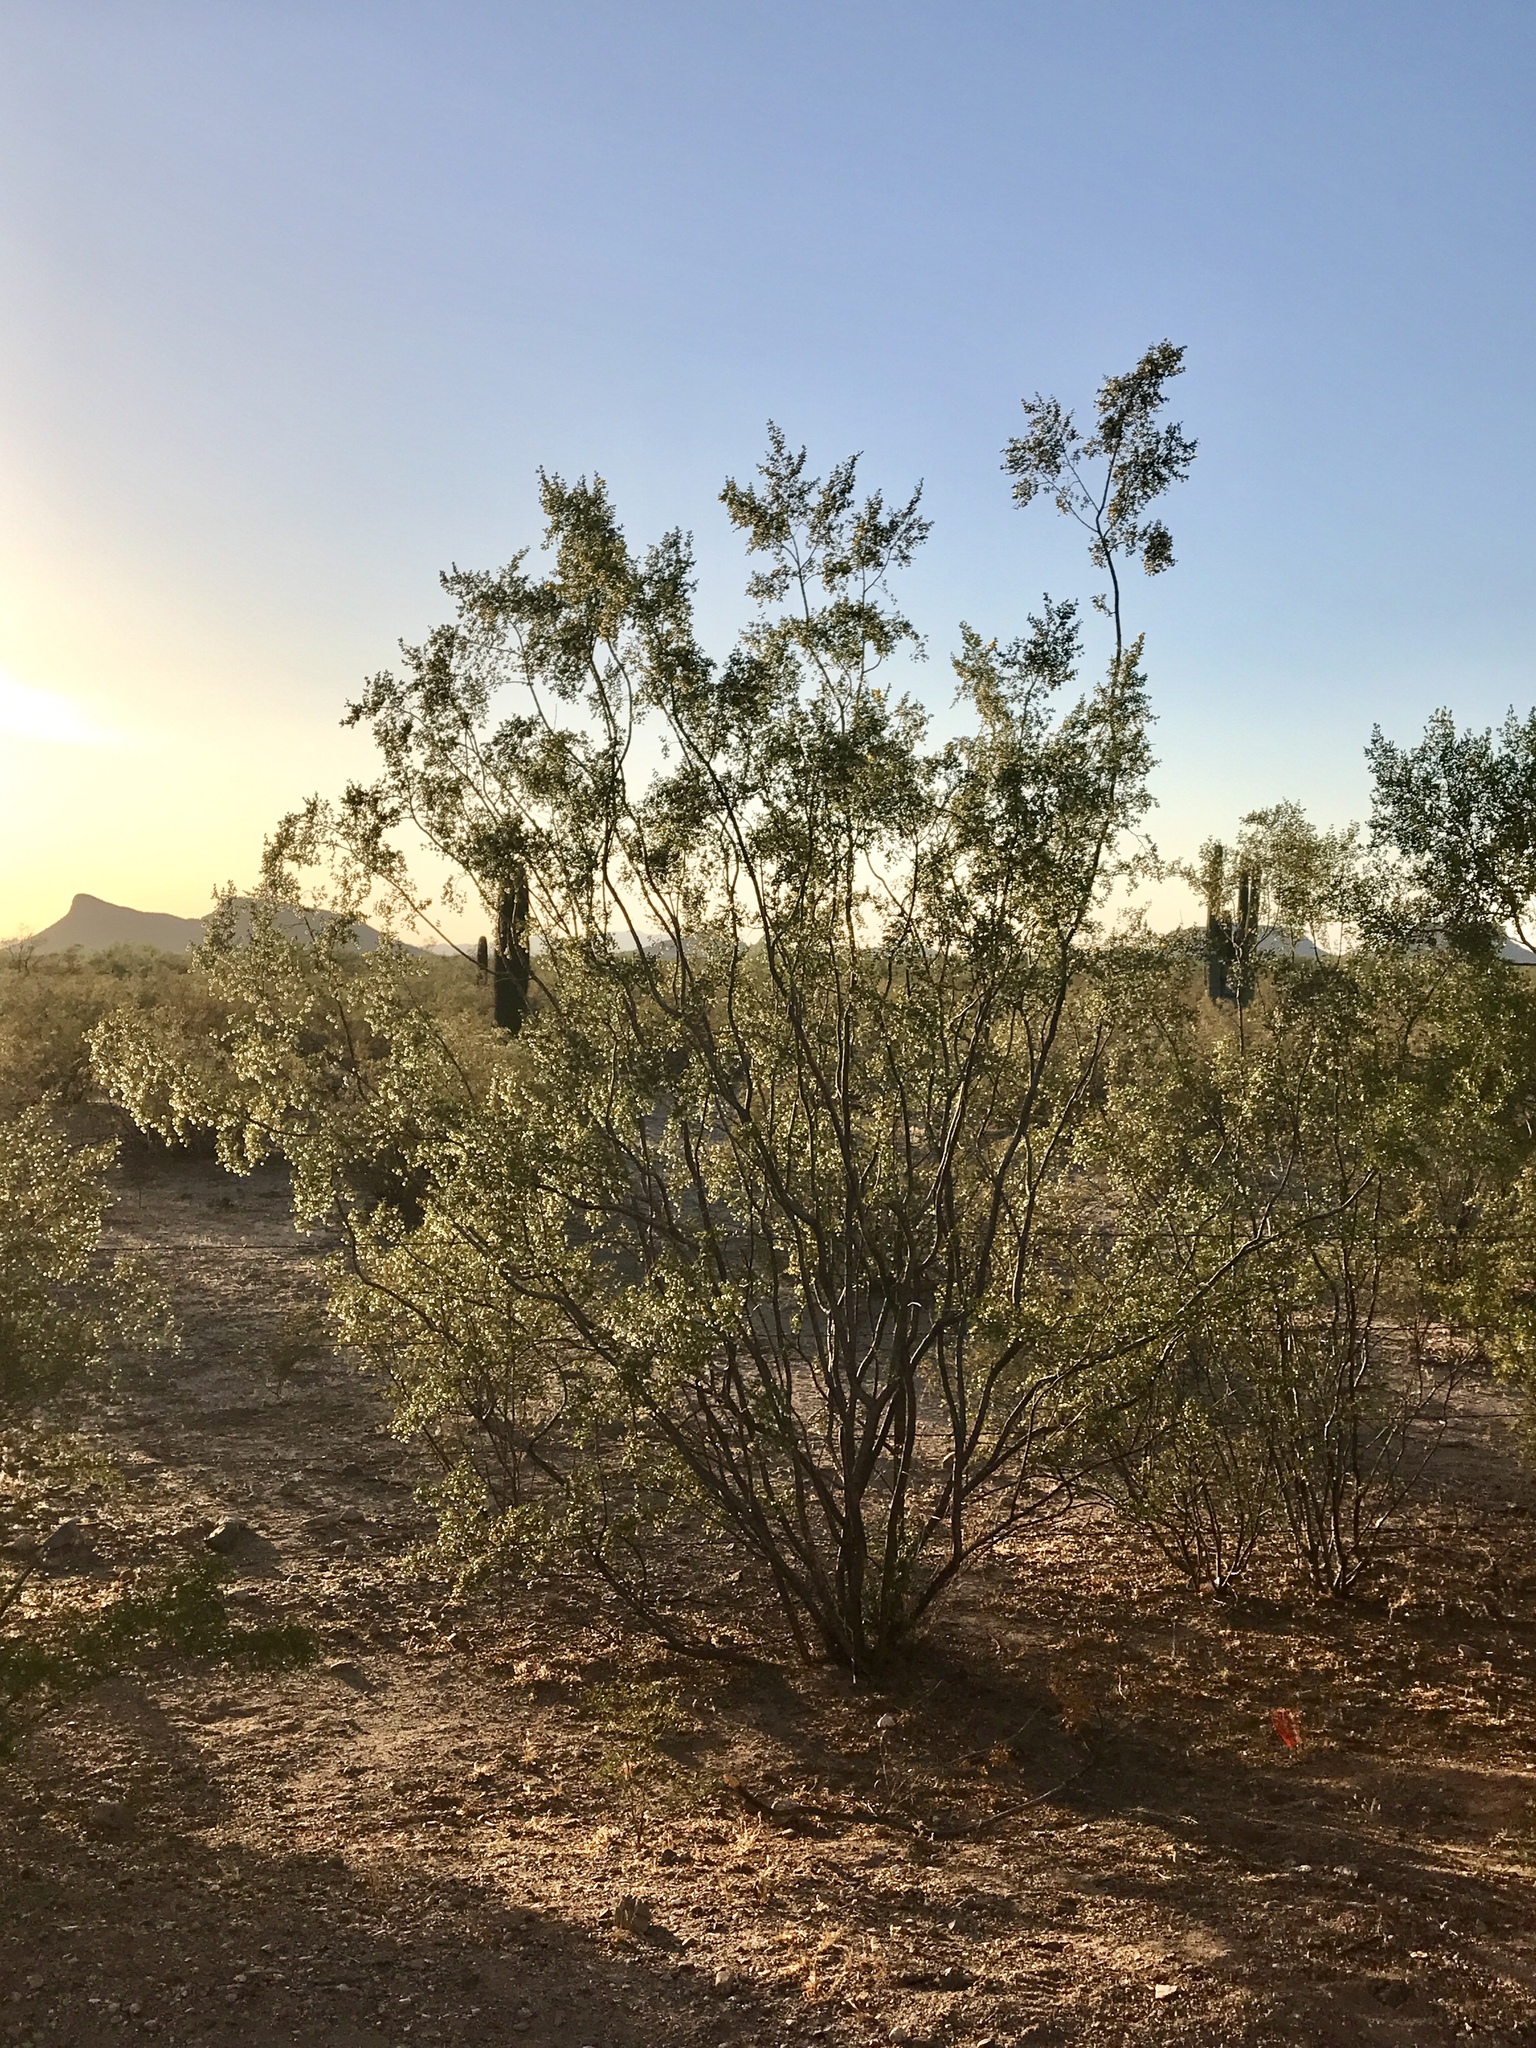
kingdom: Plantae
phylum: Tracheophyta
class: Magnoliopsida
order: Zygophyllales
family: Zygophyllaceae
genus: Larrea
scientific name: Larrea tridentata
